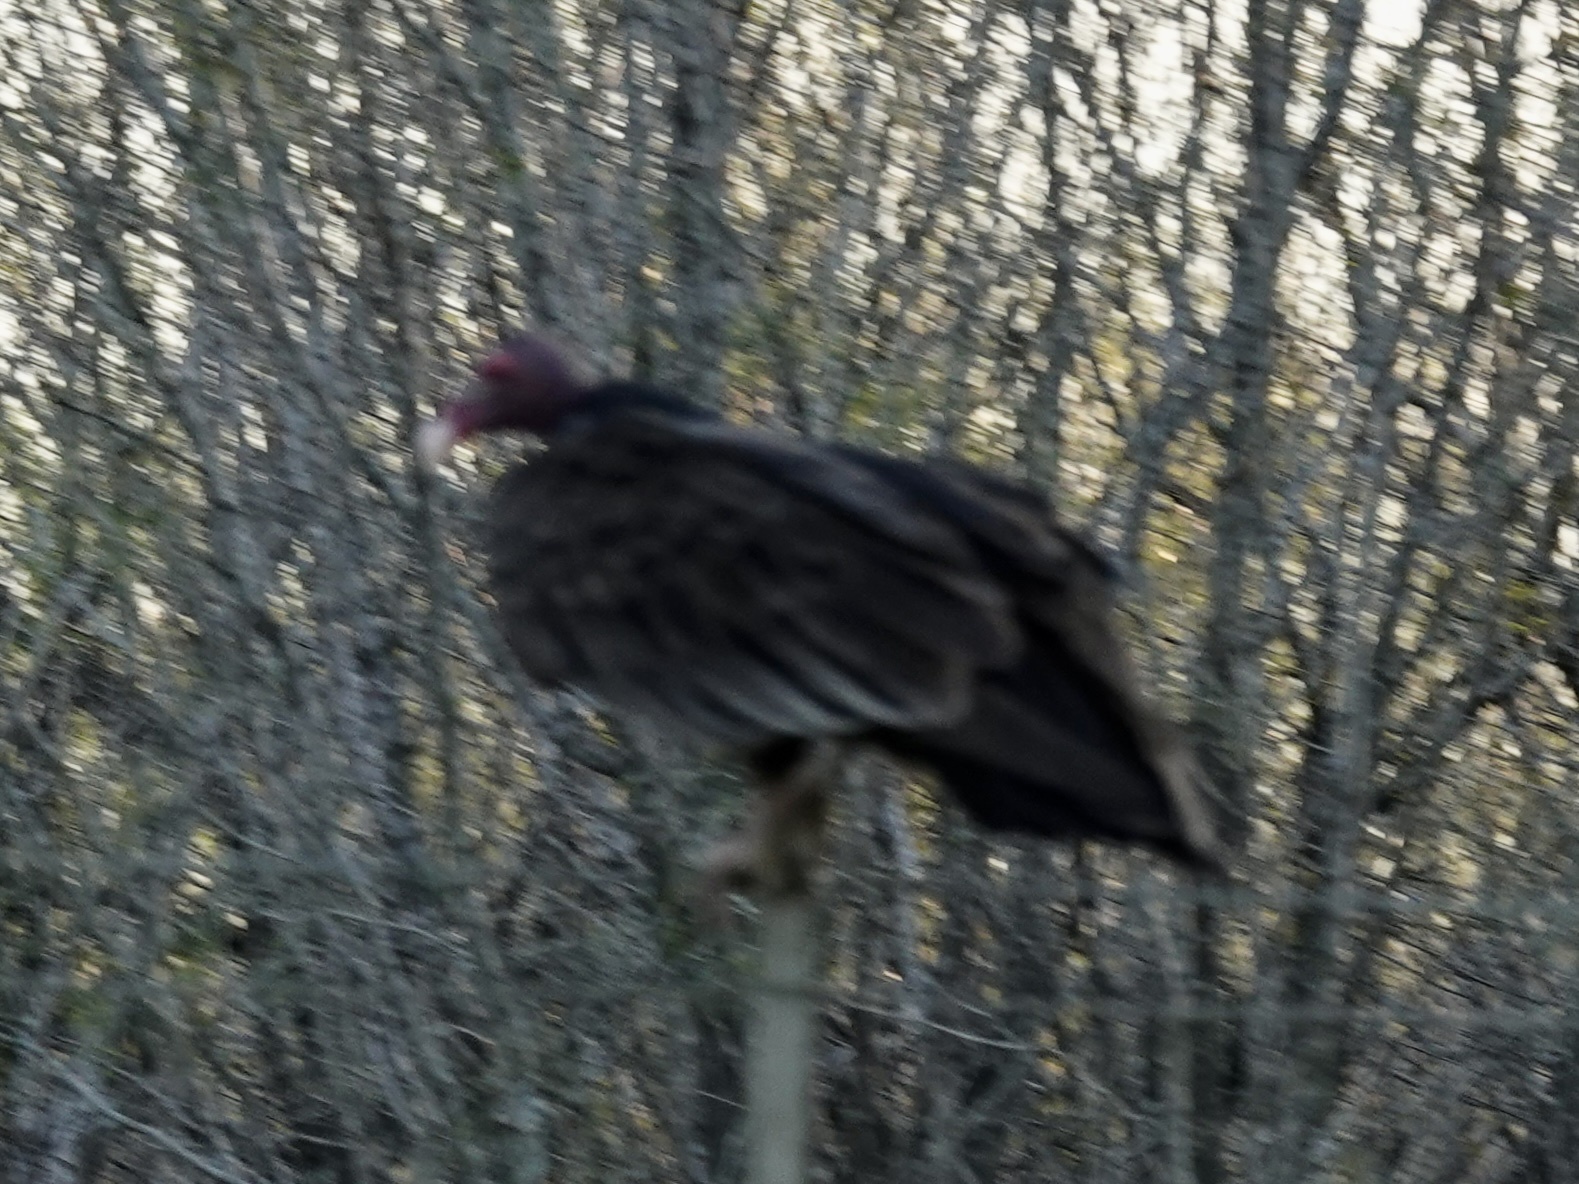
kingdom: Animalia
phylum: Chordata
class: Aves
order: Accipitriformes
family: Cathartidae
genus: Cathartes
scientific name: Cathartes aura
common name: Turkey vulture
